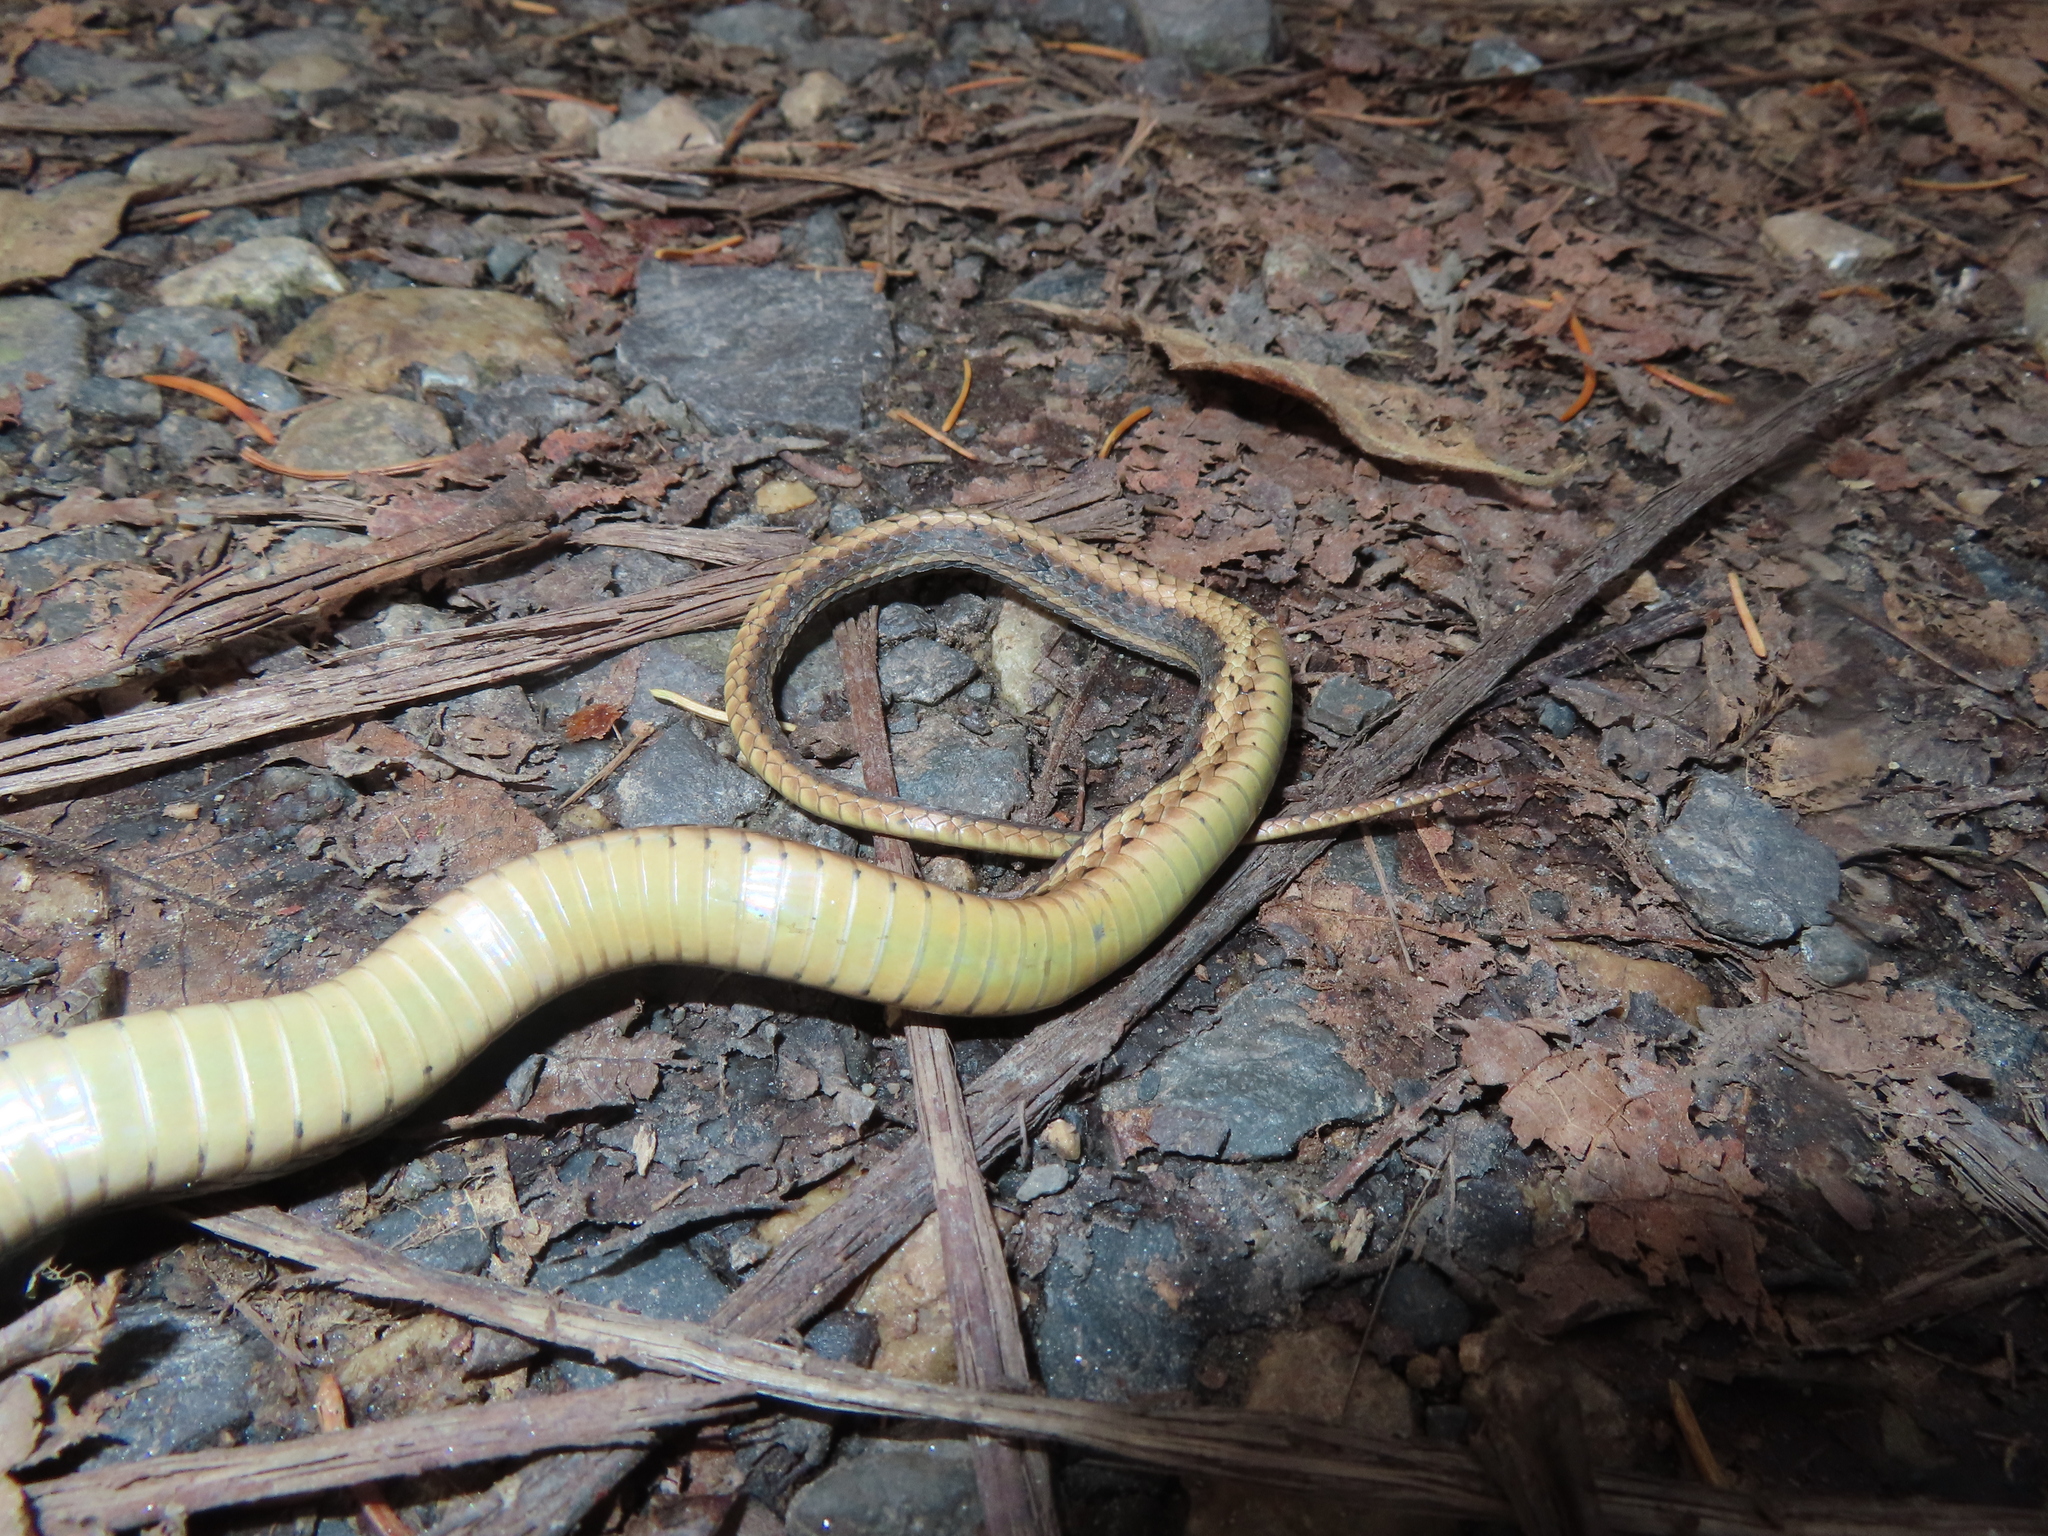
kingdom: Animalia
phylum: Chordata
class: Squamata
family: Colubridae
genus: Thamnophis
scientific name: Thamnophis sirtalis
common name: Common garter snake
